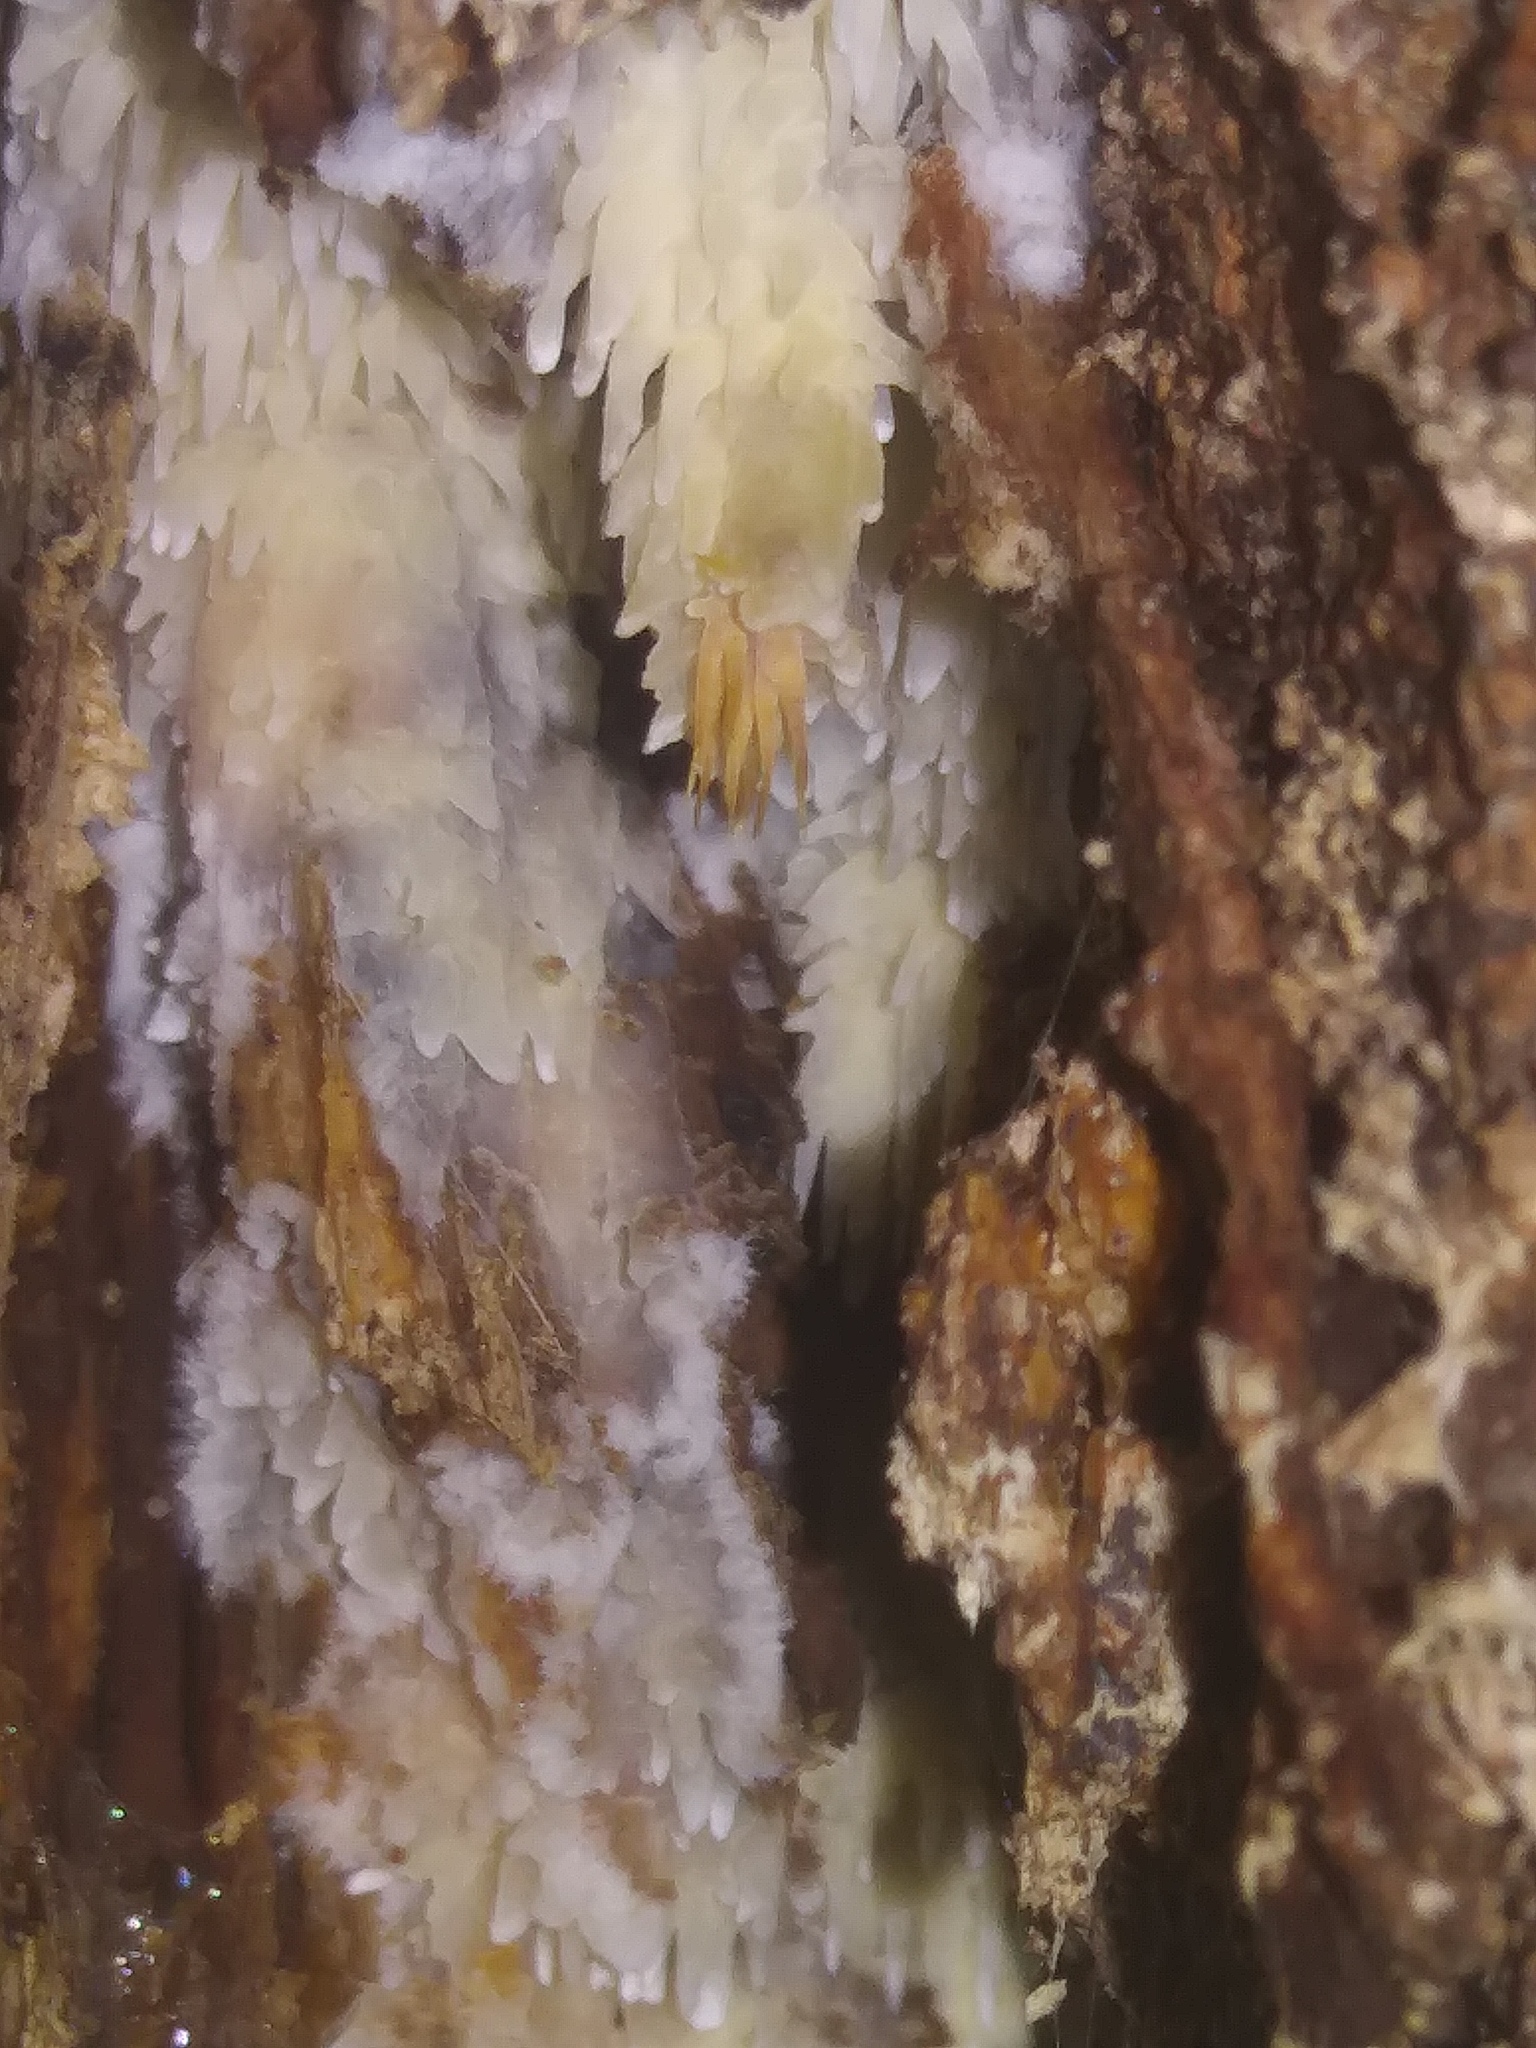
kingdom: Fungi
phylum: Basidiomycota
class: Agaricomycetes
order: Agaricales
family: Radulomycetaceae
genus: Radulomyces
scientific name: Radulomyces copelandii
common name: Asian beauty
